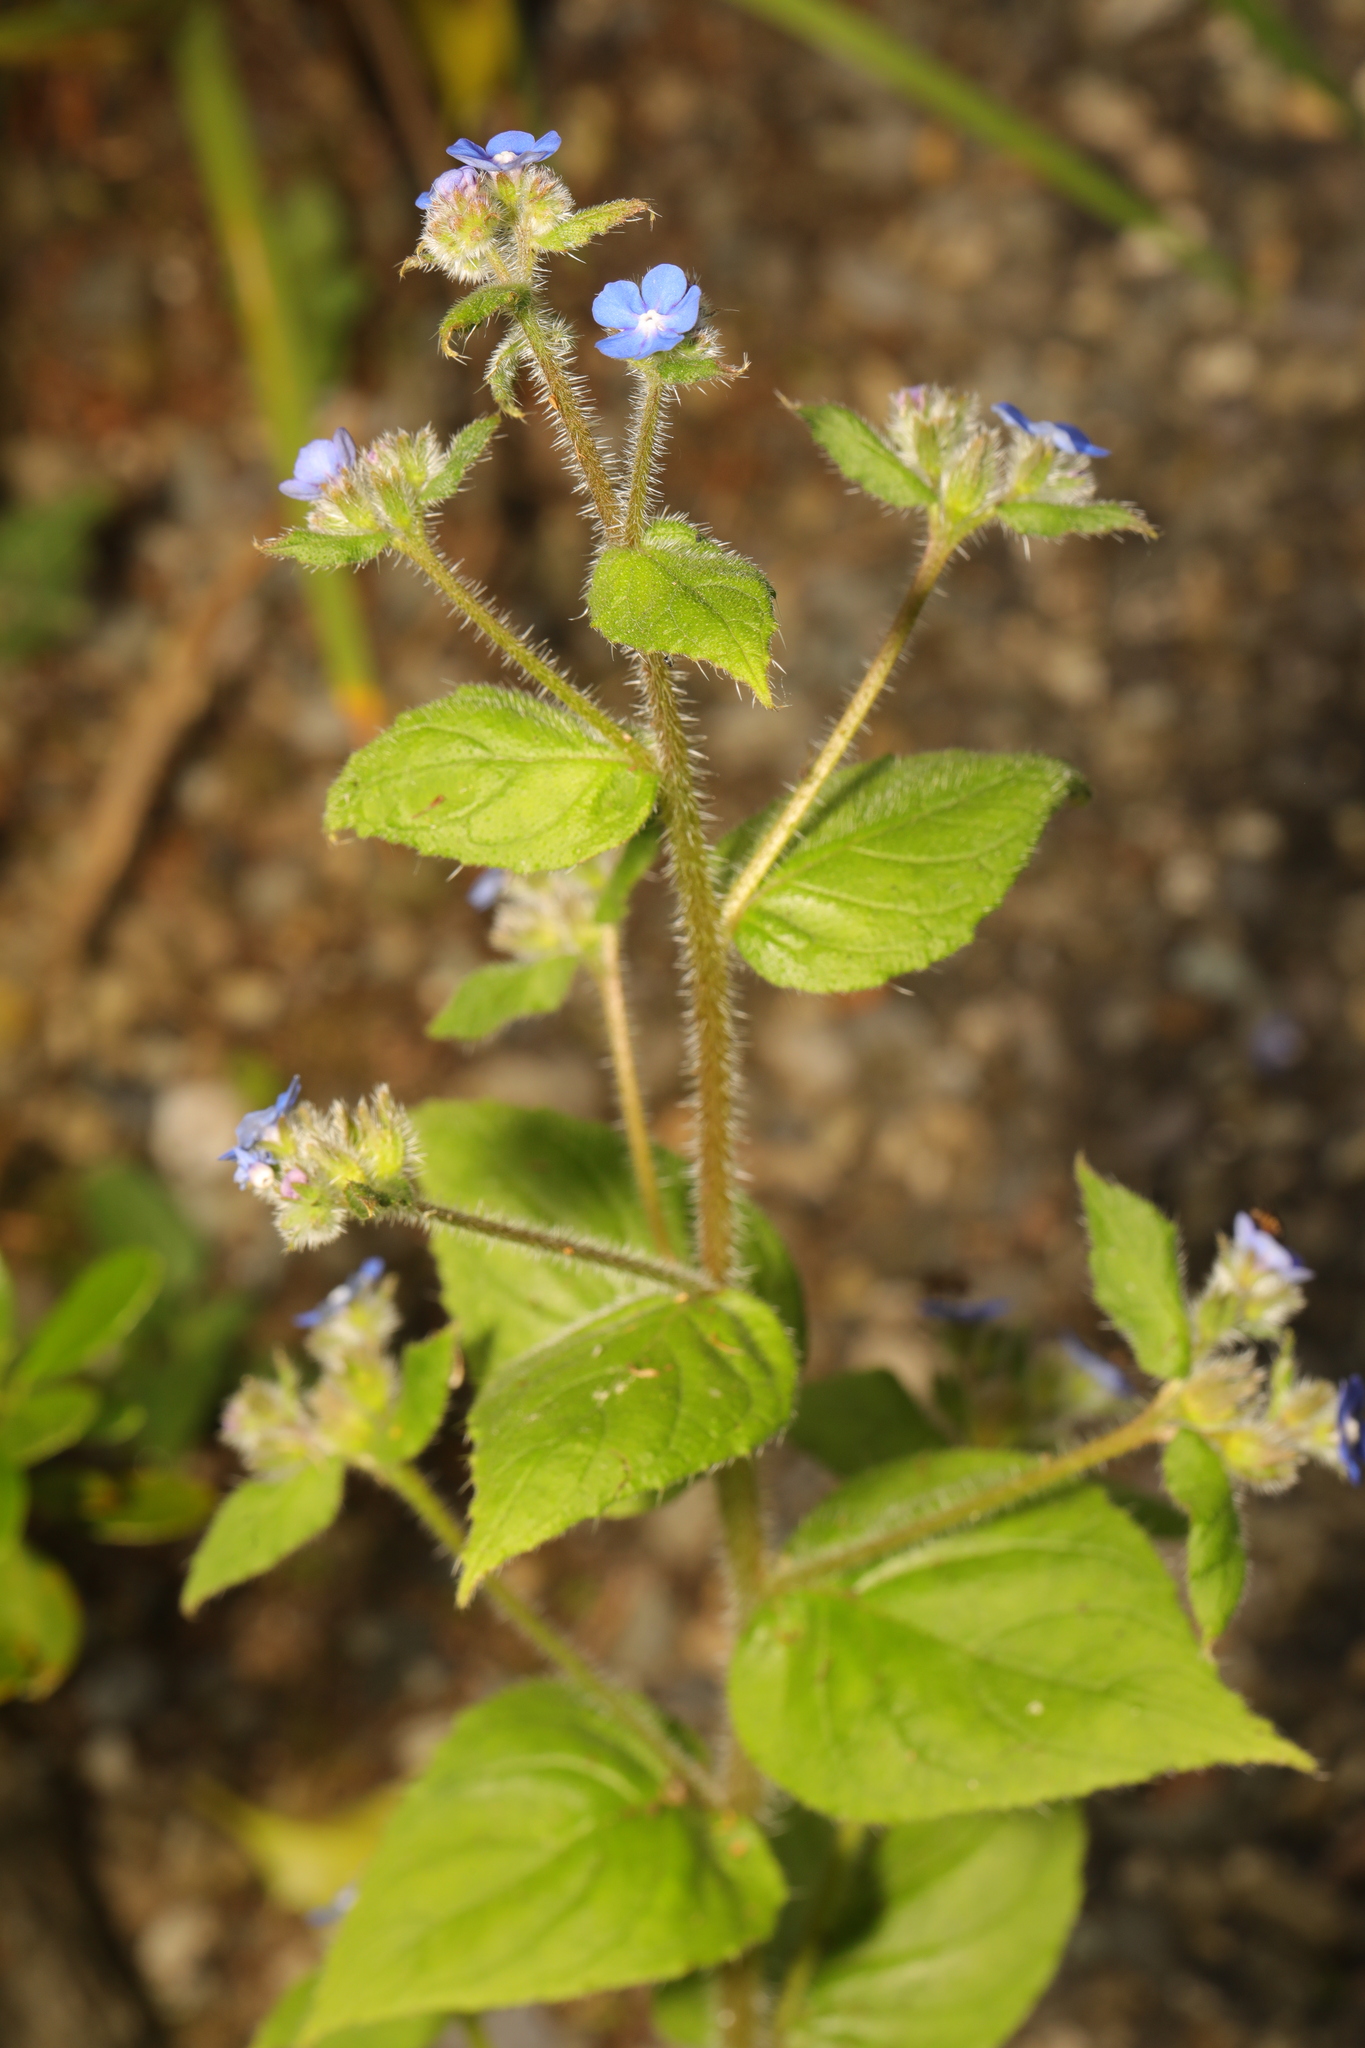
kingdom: Plantae
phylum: Tracheophyta
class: Magnoliopsida
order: Boraginales
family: Boraginaceae
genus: Pentaglottis
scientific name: Pentaglottis sempervirens
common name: Green alkanet
